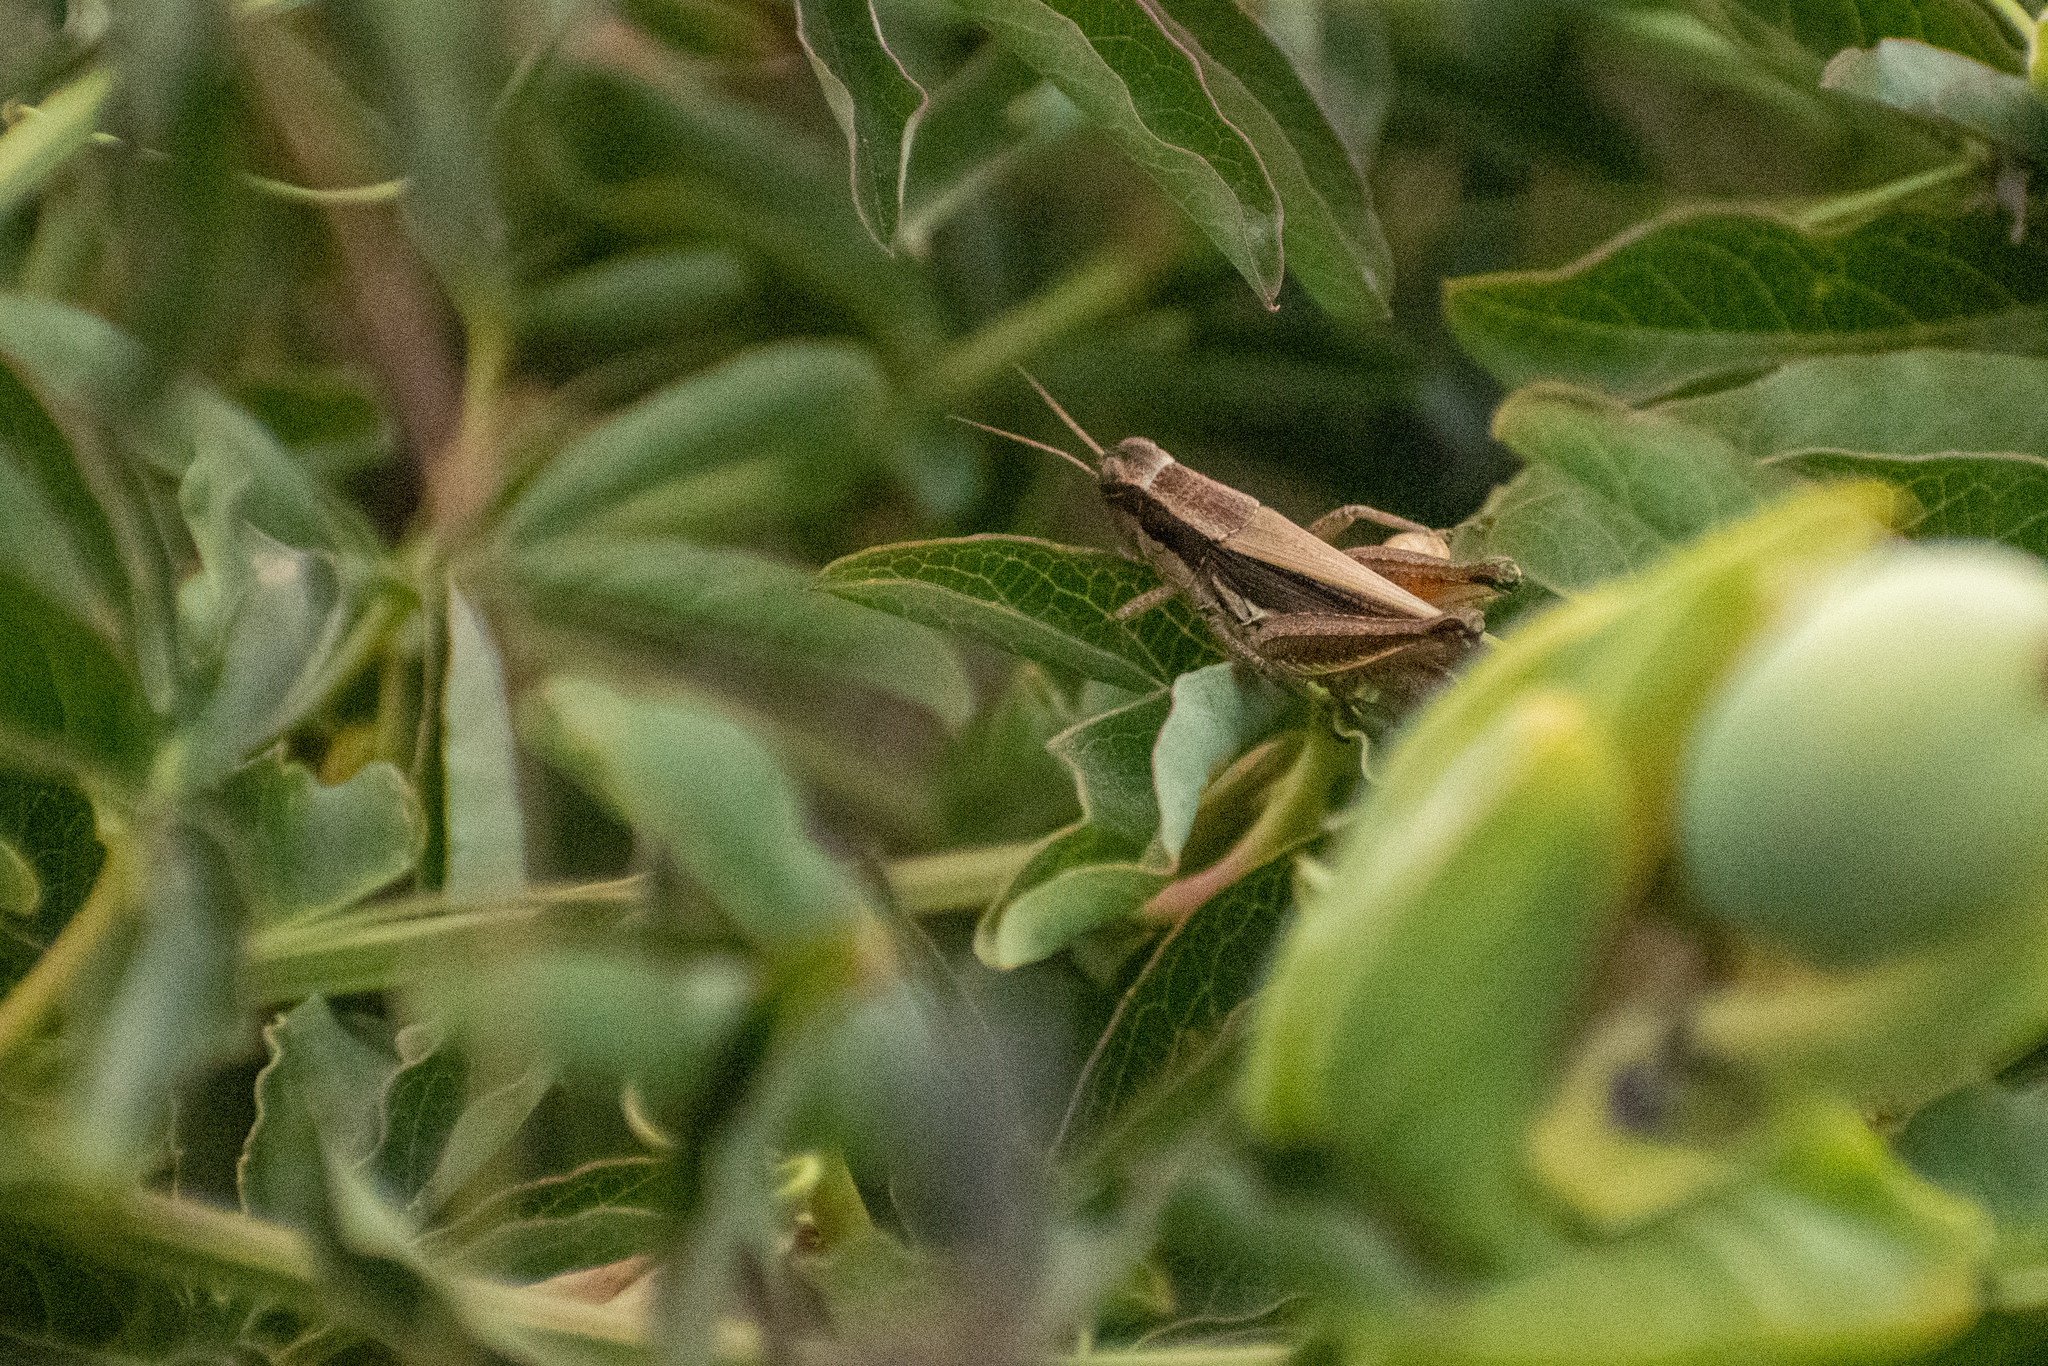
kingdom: Animalia
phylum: Arthropoda
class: Insecta
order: Orthoptera
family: Acrididae
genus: Dichroplus
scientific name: Dichroplus elongatus
